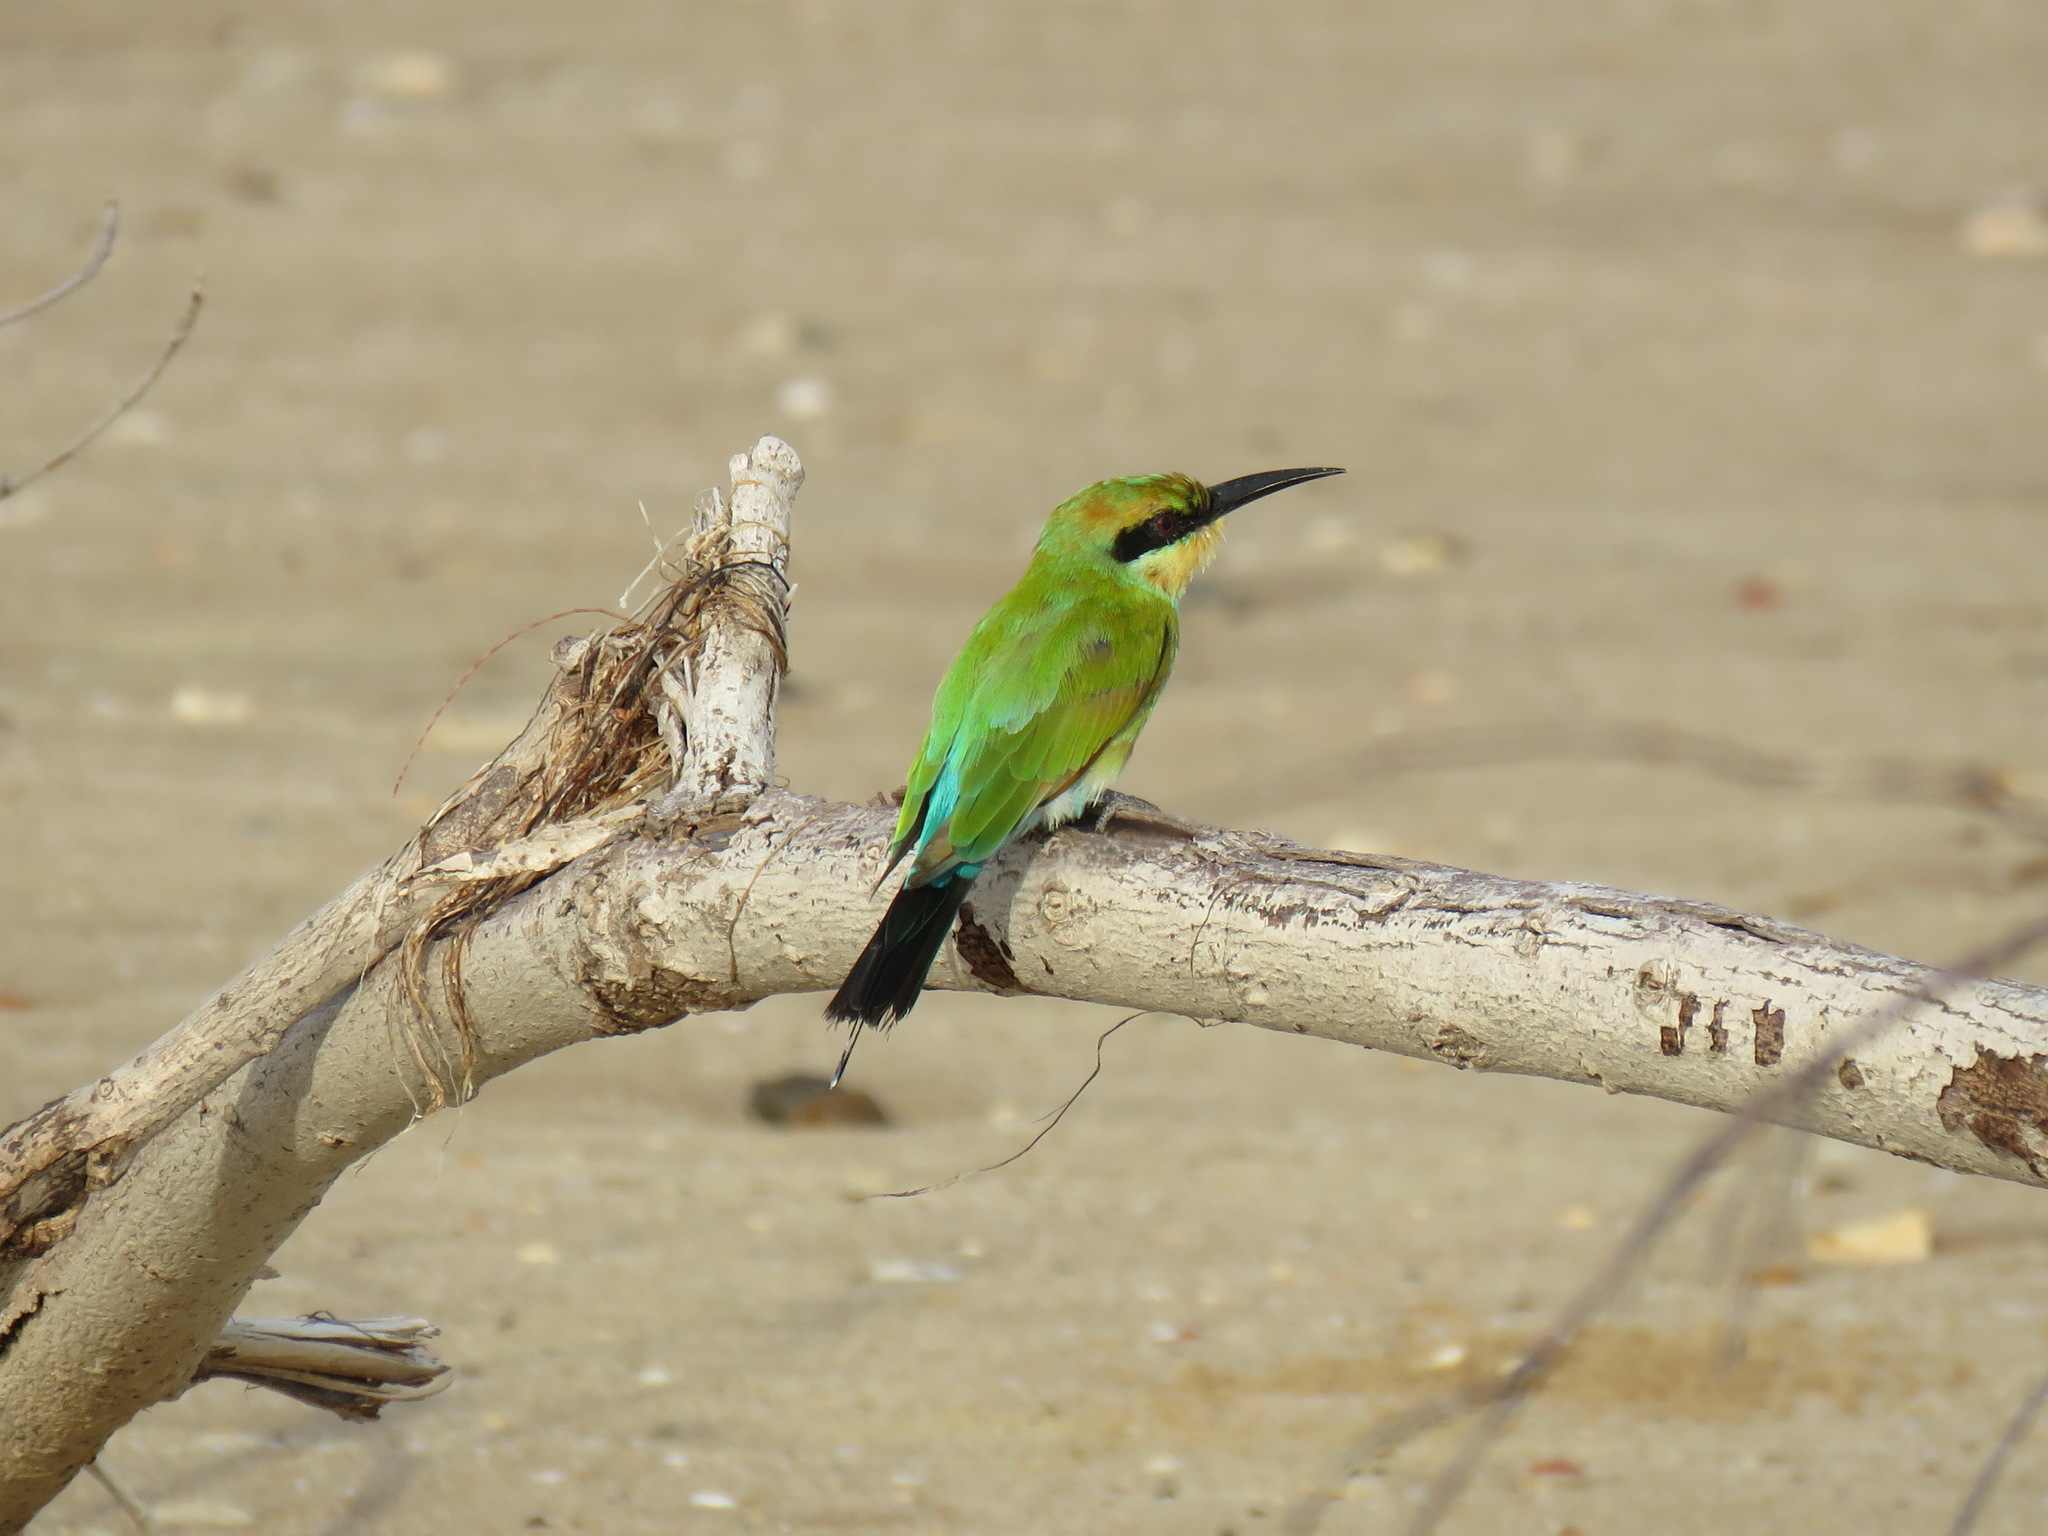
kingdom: Animalia
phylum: Chordata
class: Aves
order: Coraciiformes
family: Meropidae
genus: Merops
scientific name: Merops ornatus
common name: Rainbow bee-eater
